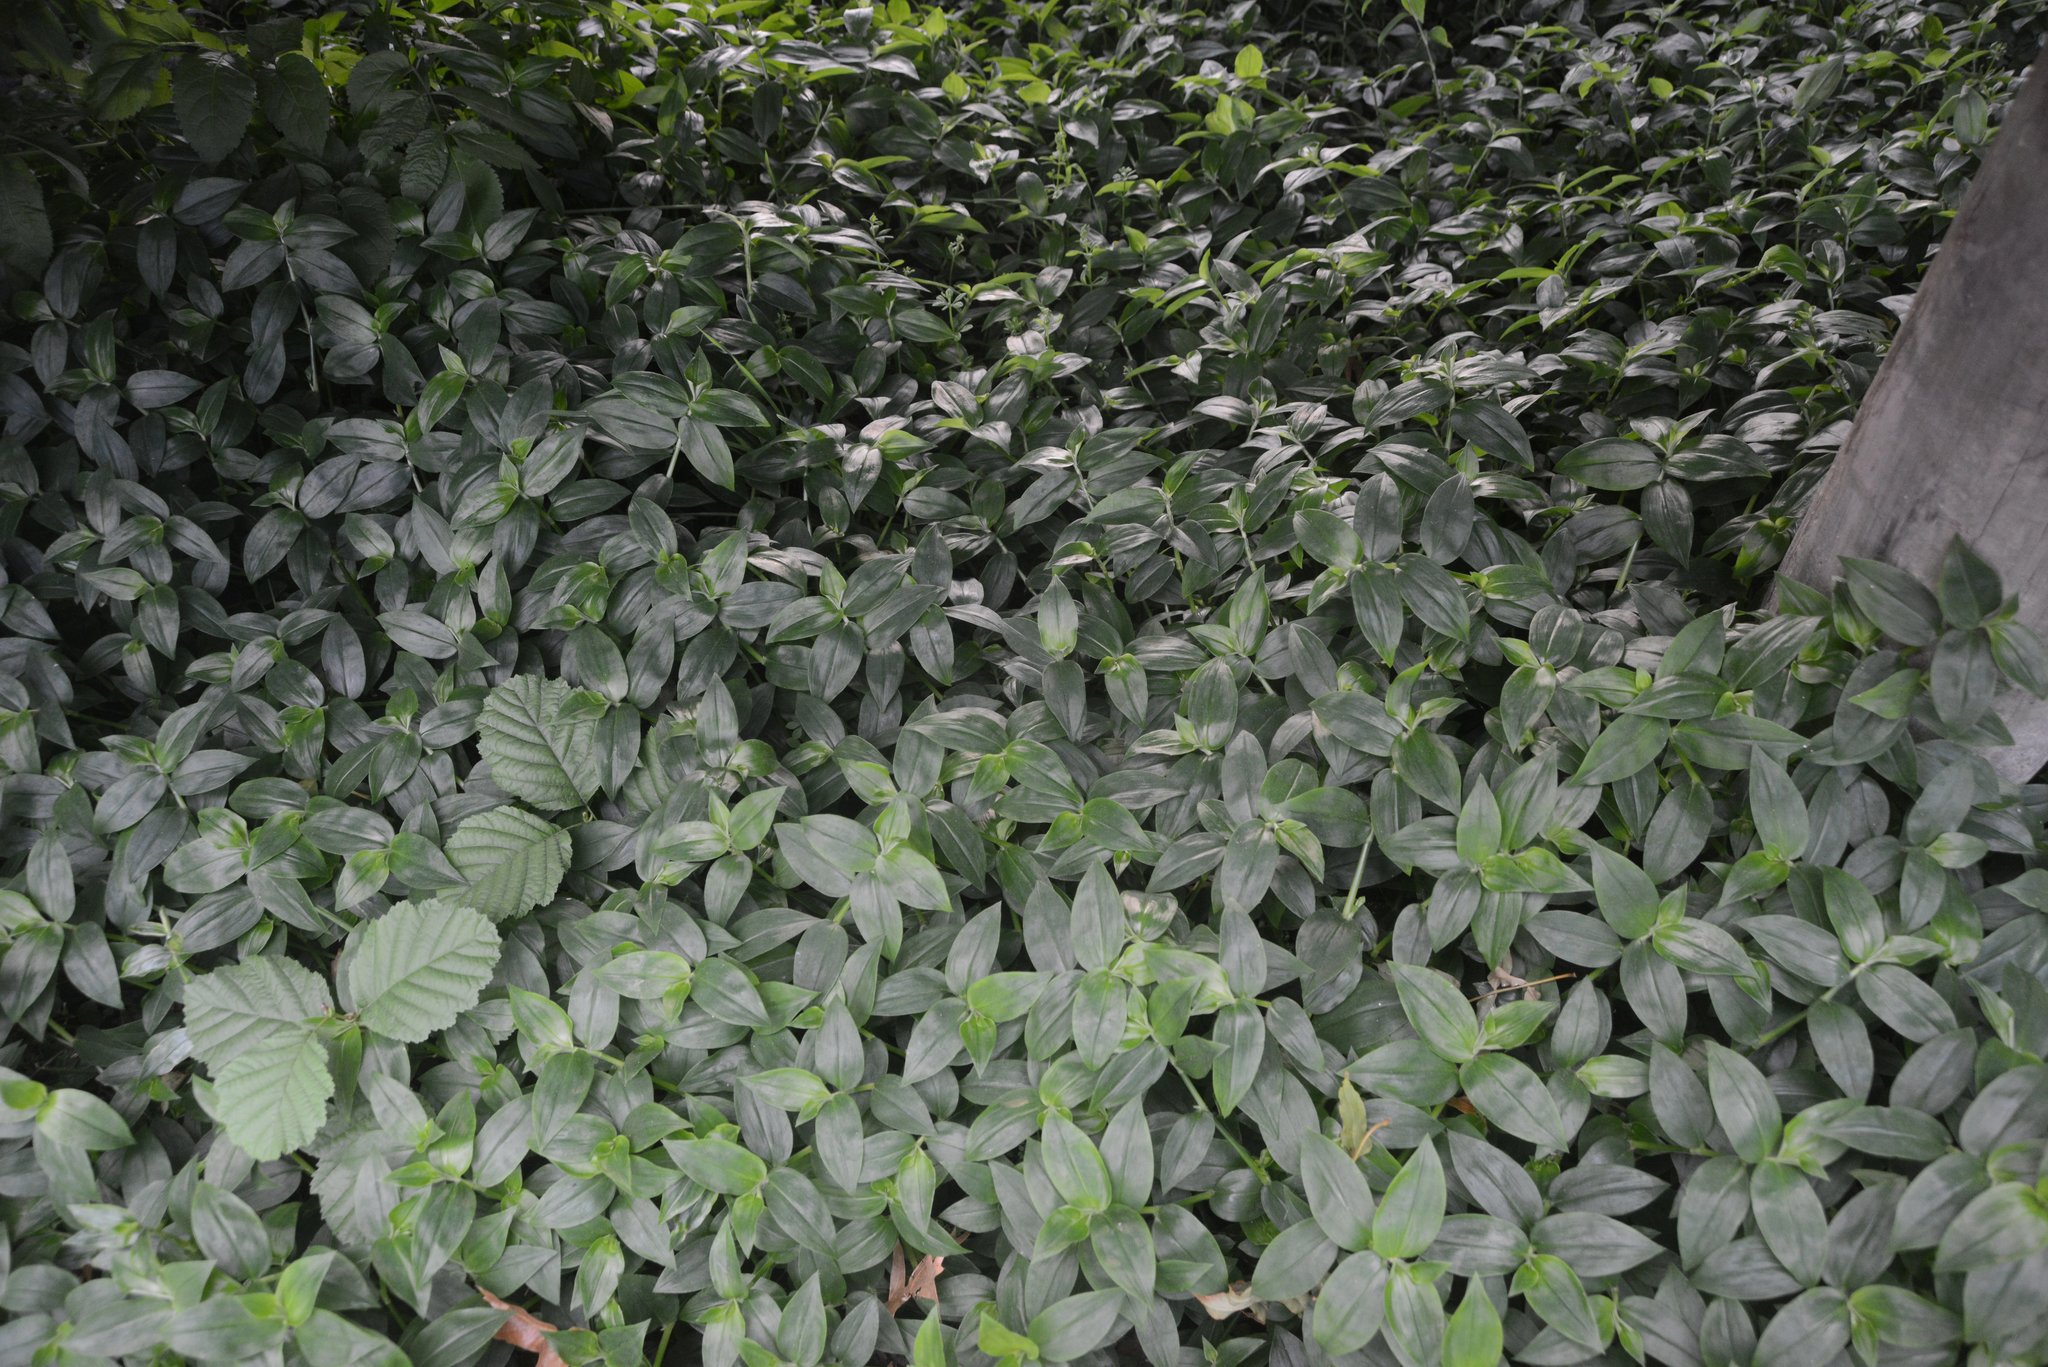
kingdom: Plantae
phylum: Tracheophyta
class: Liliopsida
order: Commelinales
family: Commelinaceae
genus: Tradescantia
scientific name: Tradescantia fluminensis
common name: Wandering-jew
